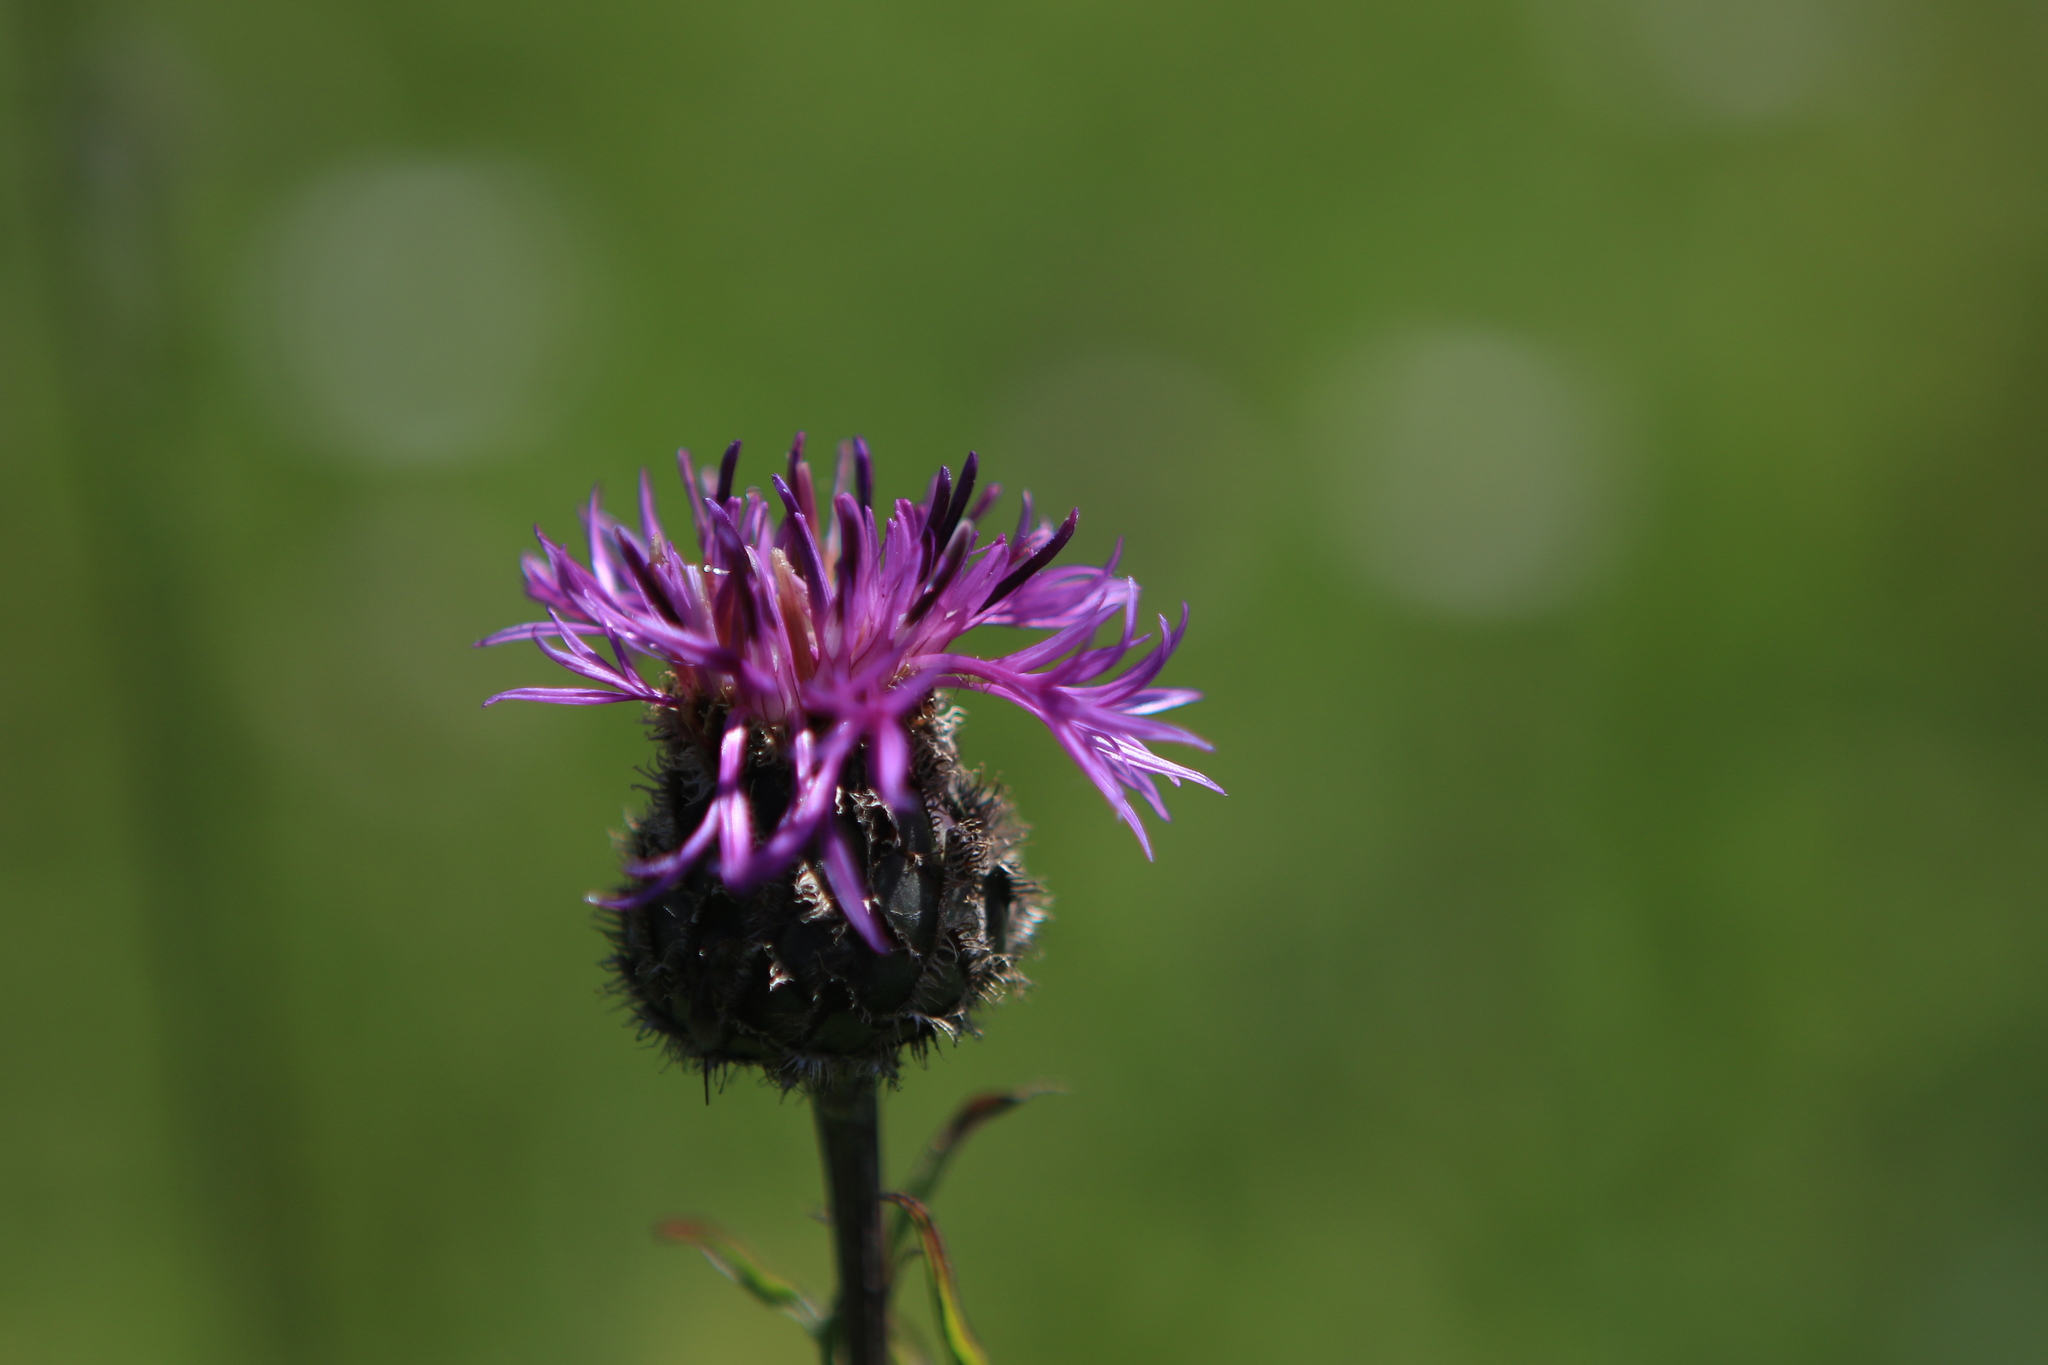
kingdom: Plantae
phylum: Tracheophyta
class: Magnoliopsida
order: Asterales
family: Asteraceae
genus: Centaurea
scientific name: Centaurea scabiosa
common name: Greater knapweed
